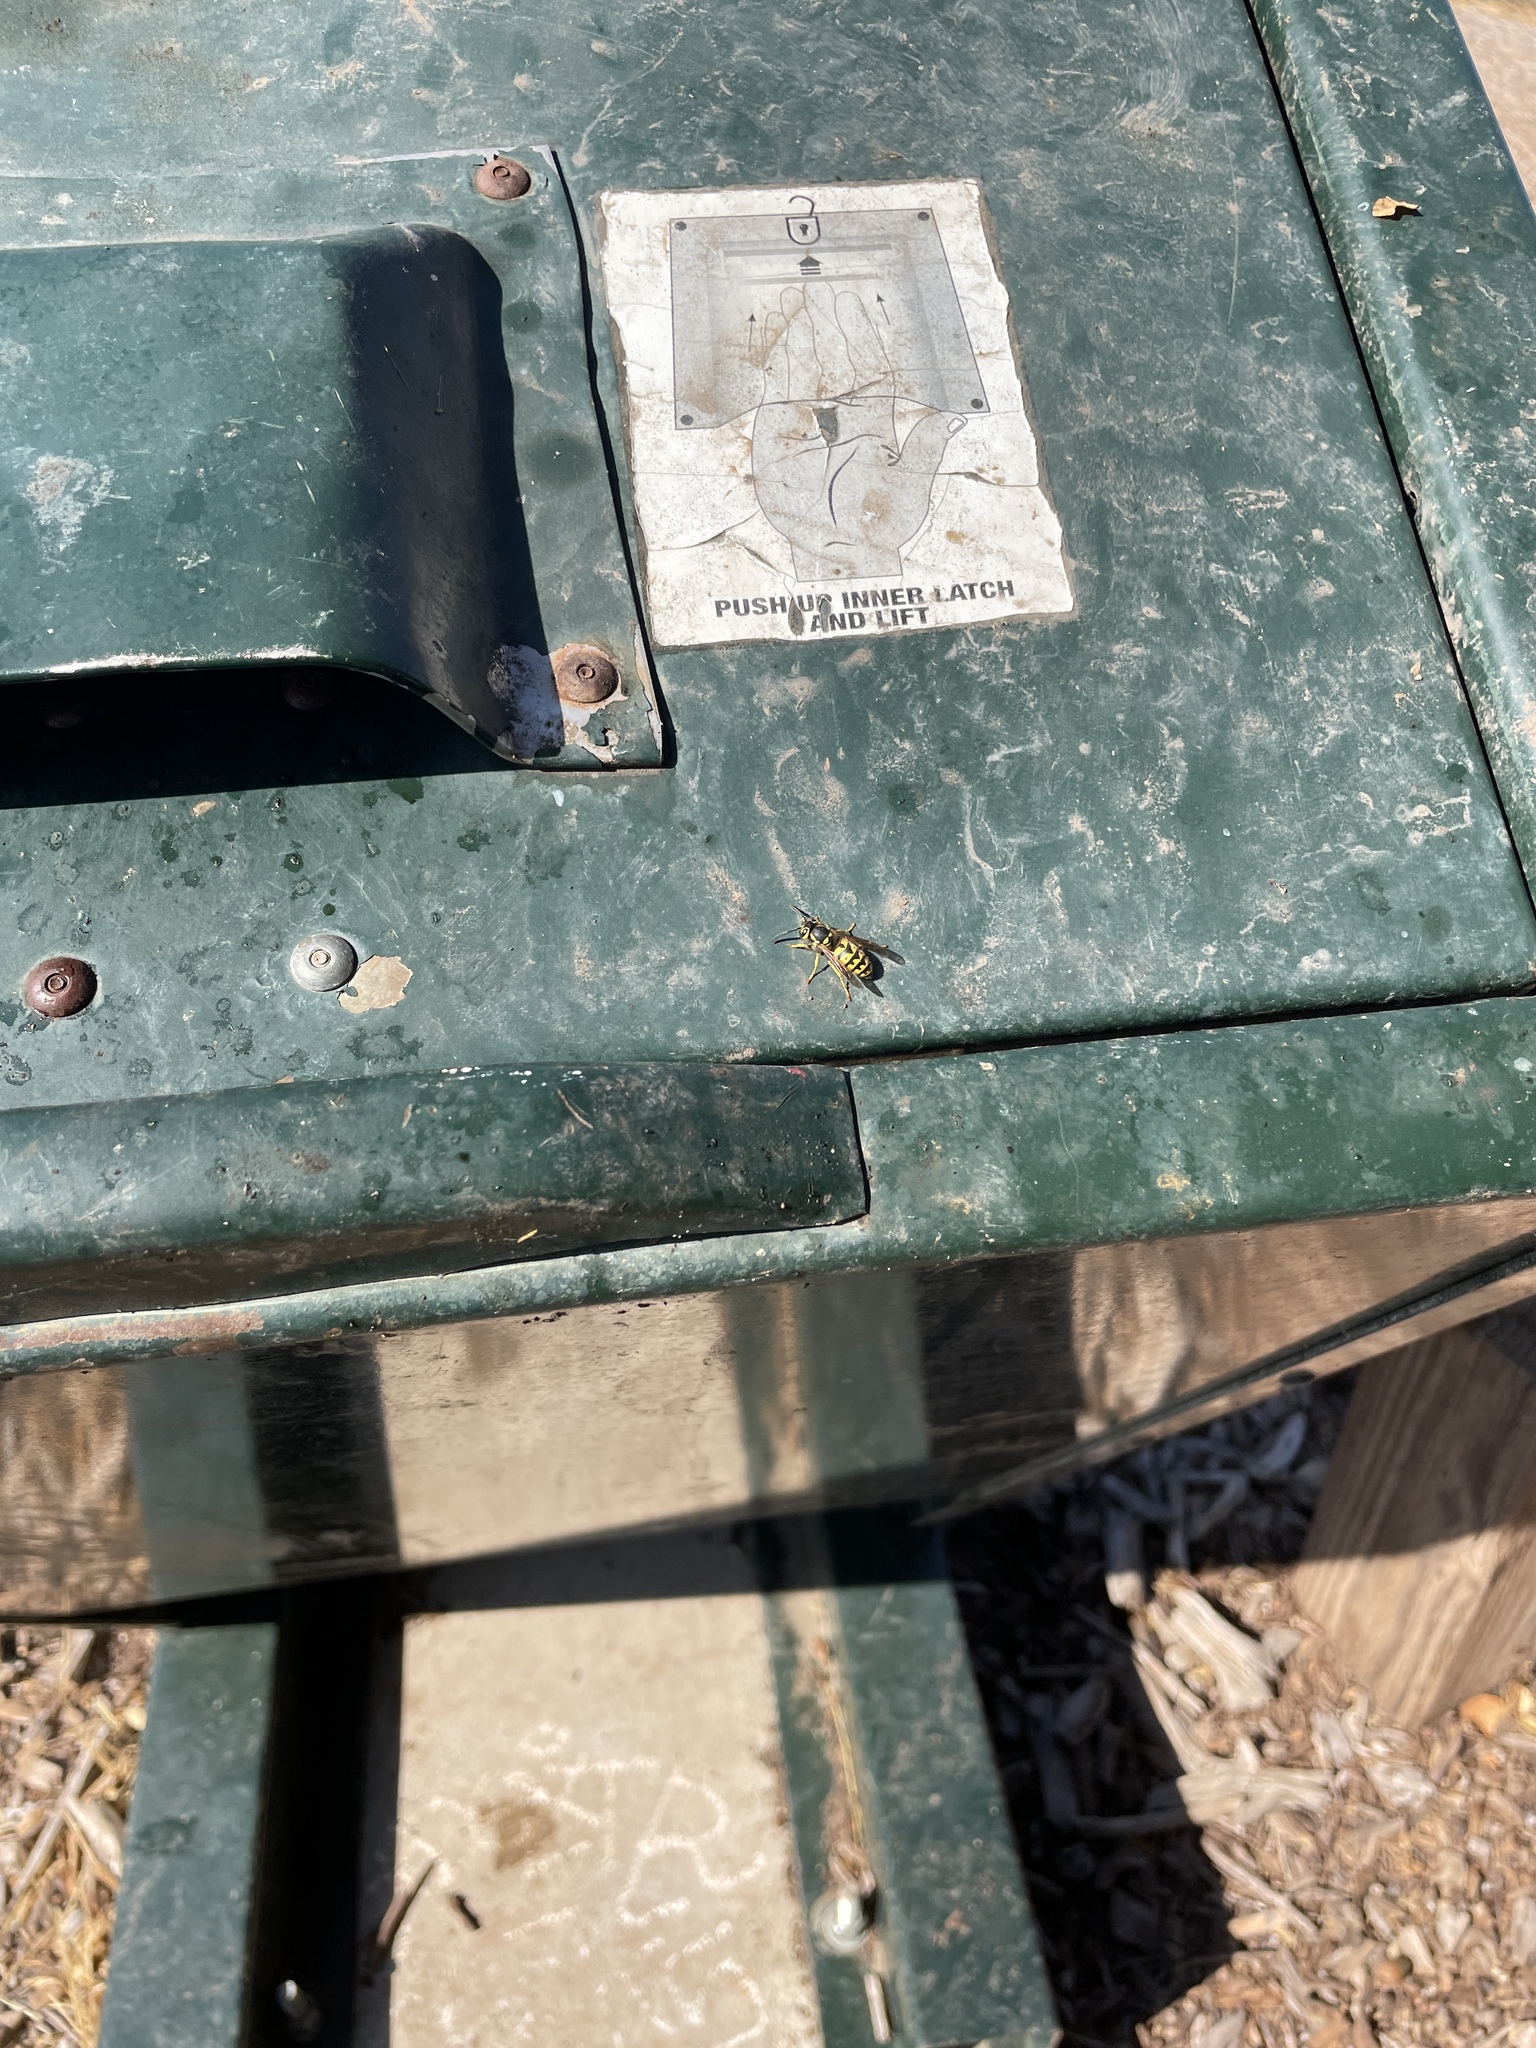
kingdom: Animalia
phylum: Arthropoda
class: Insecta
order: Hymenoptera
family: Vespidae
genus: Vespula
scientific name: Vespula pensylvanica
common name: Western yellowjacket
